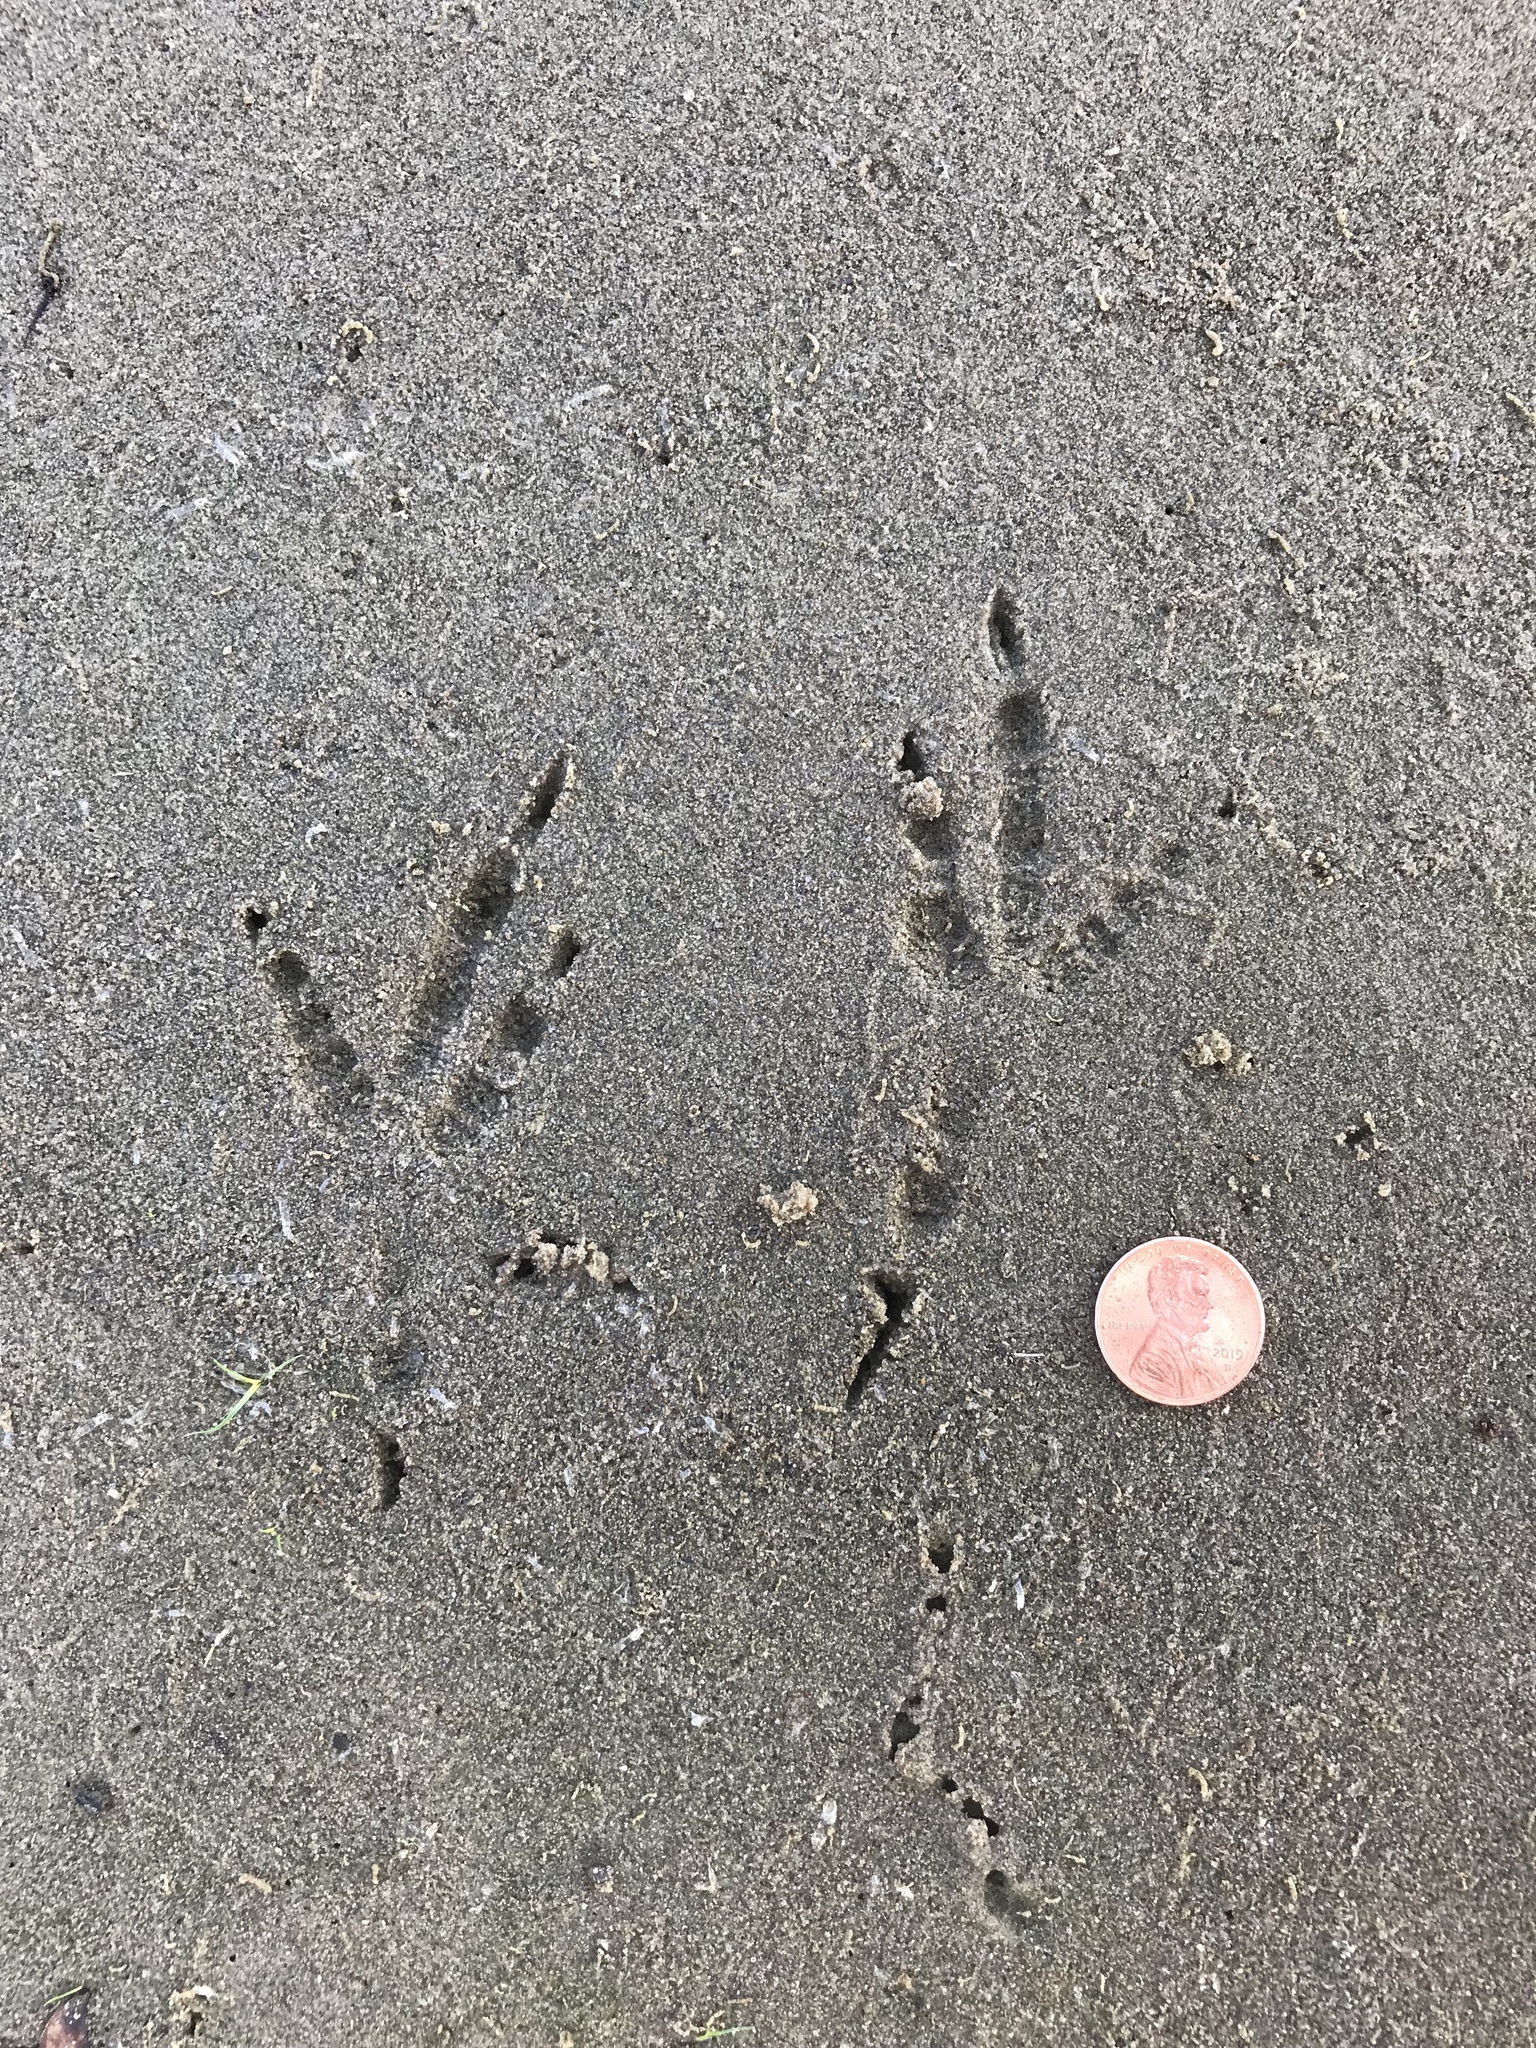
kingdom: Animalia
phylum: Chordata
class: Aves
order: Passeriformes
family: Corvidae
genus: Corvus
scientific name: Corvus brachyrhynchos
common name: American crow
